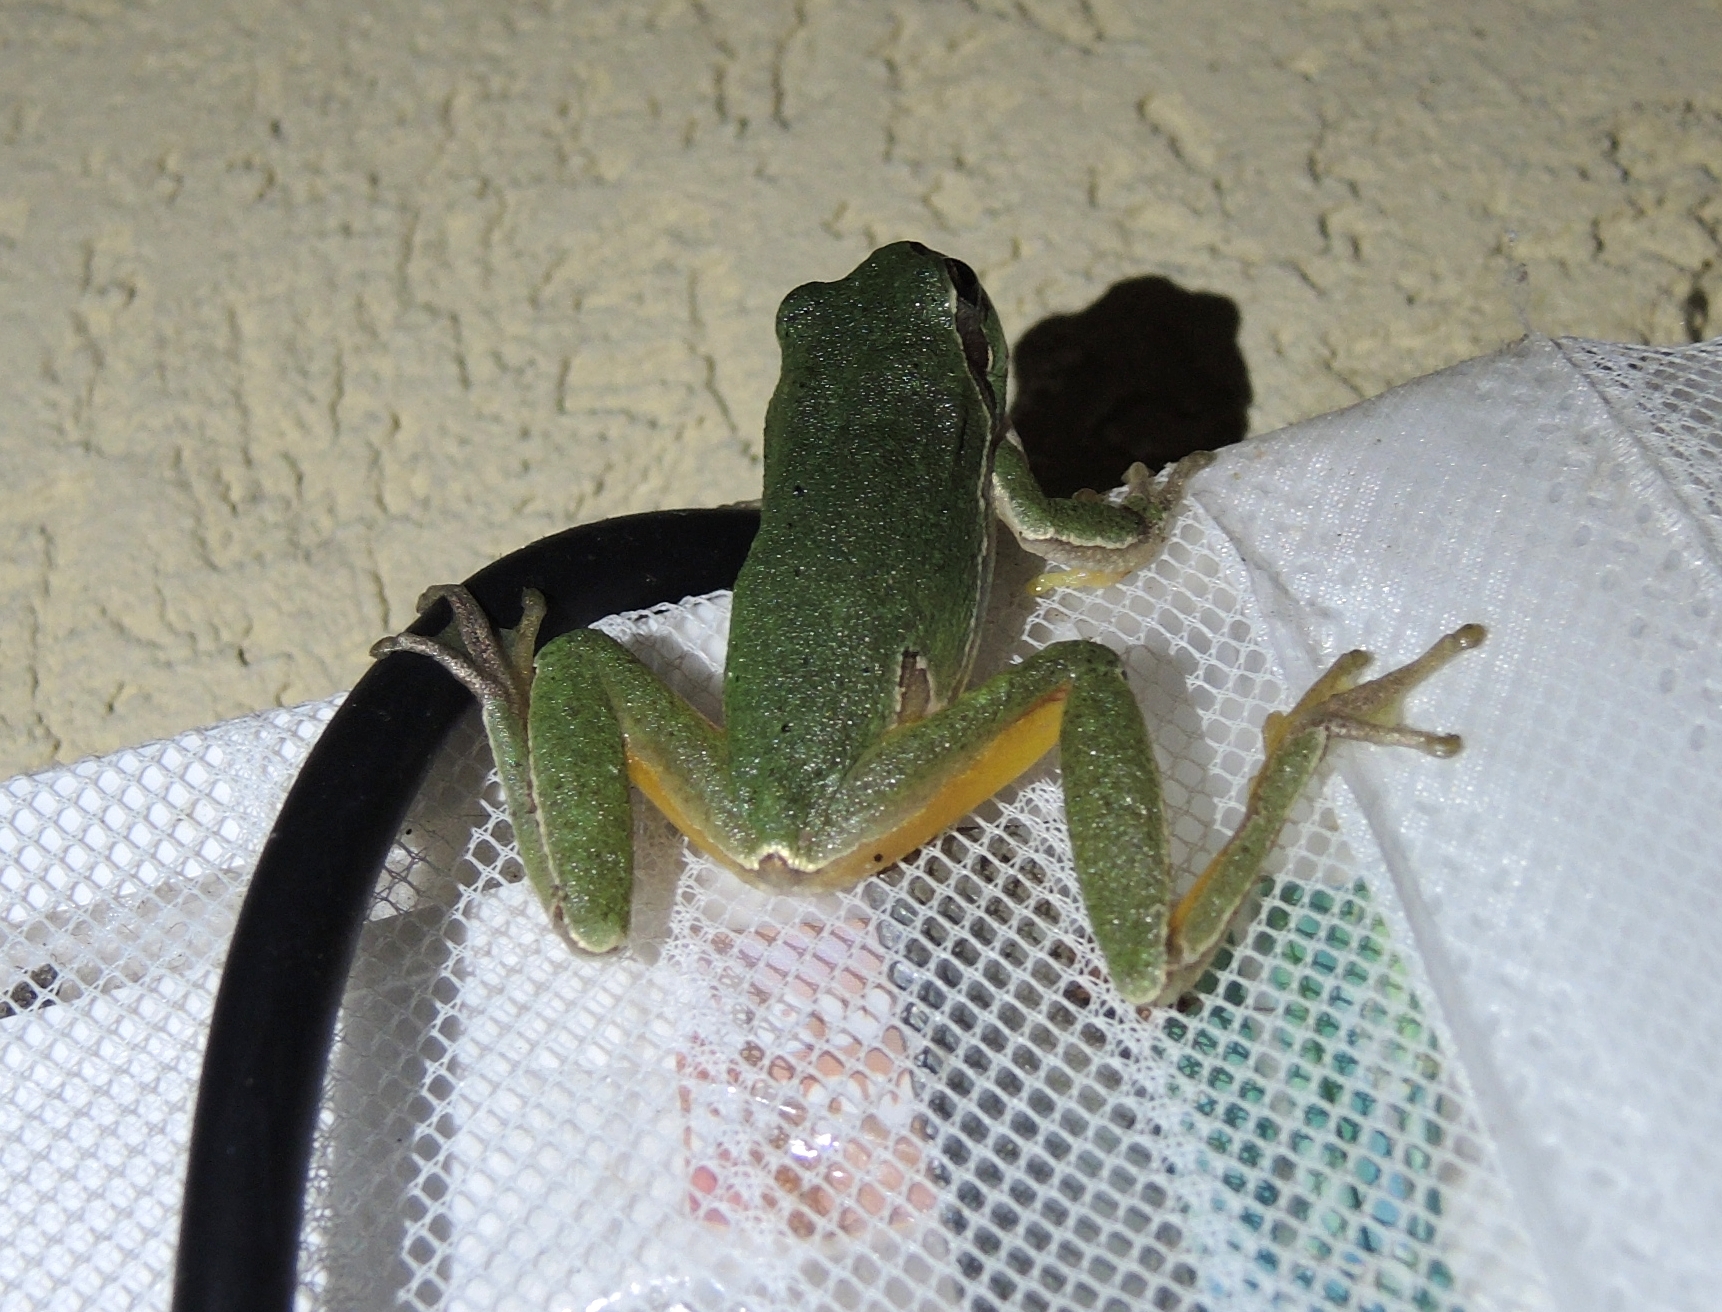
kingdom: Animalia
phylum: Chordata
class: Amphibia
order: Anura
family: Hylidae
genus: Hyla
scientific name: Hyla orientalis
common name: Caucasian treefrog
